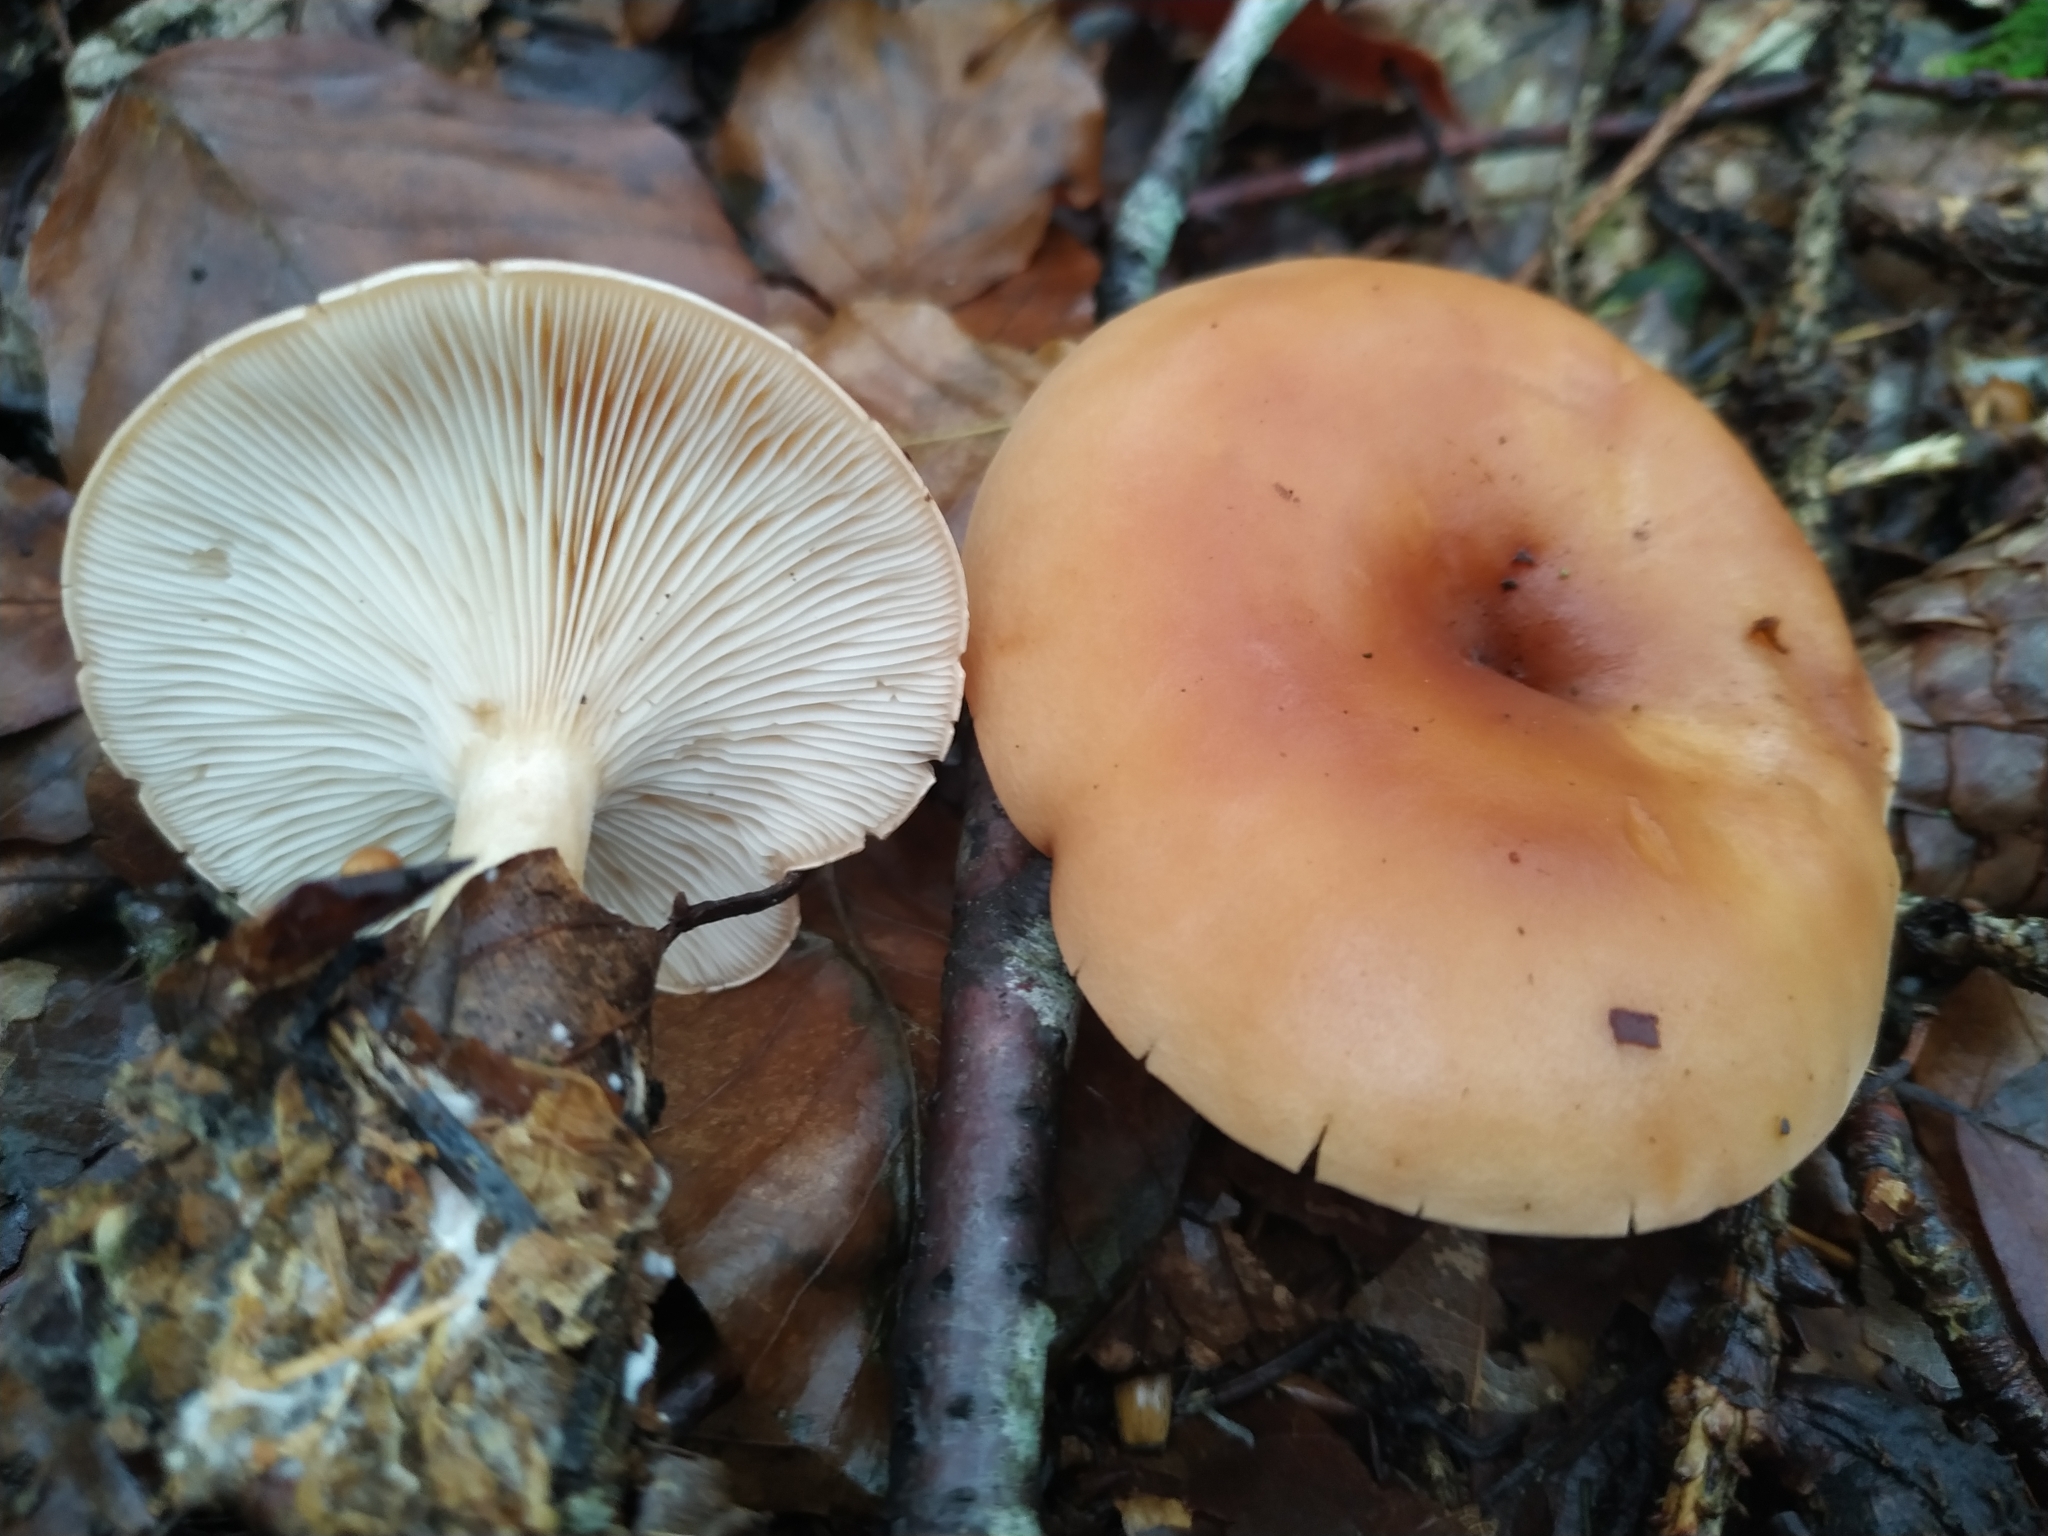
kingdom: Fungi
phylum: Basidiomycota
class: Agaricomycetes
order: Agaricales
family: Tricholomataceae
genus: Paralepista
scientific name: Paralepista flaccida
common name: Tawny funnel cap
